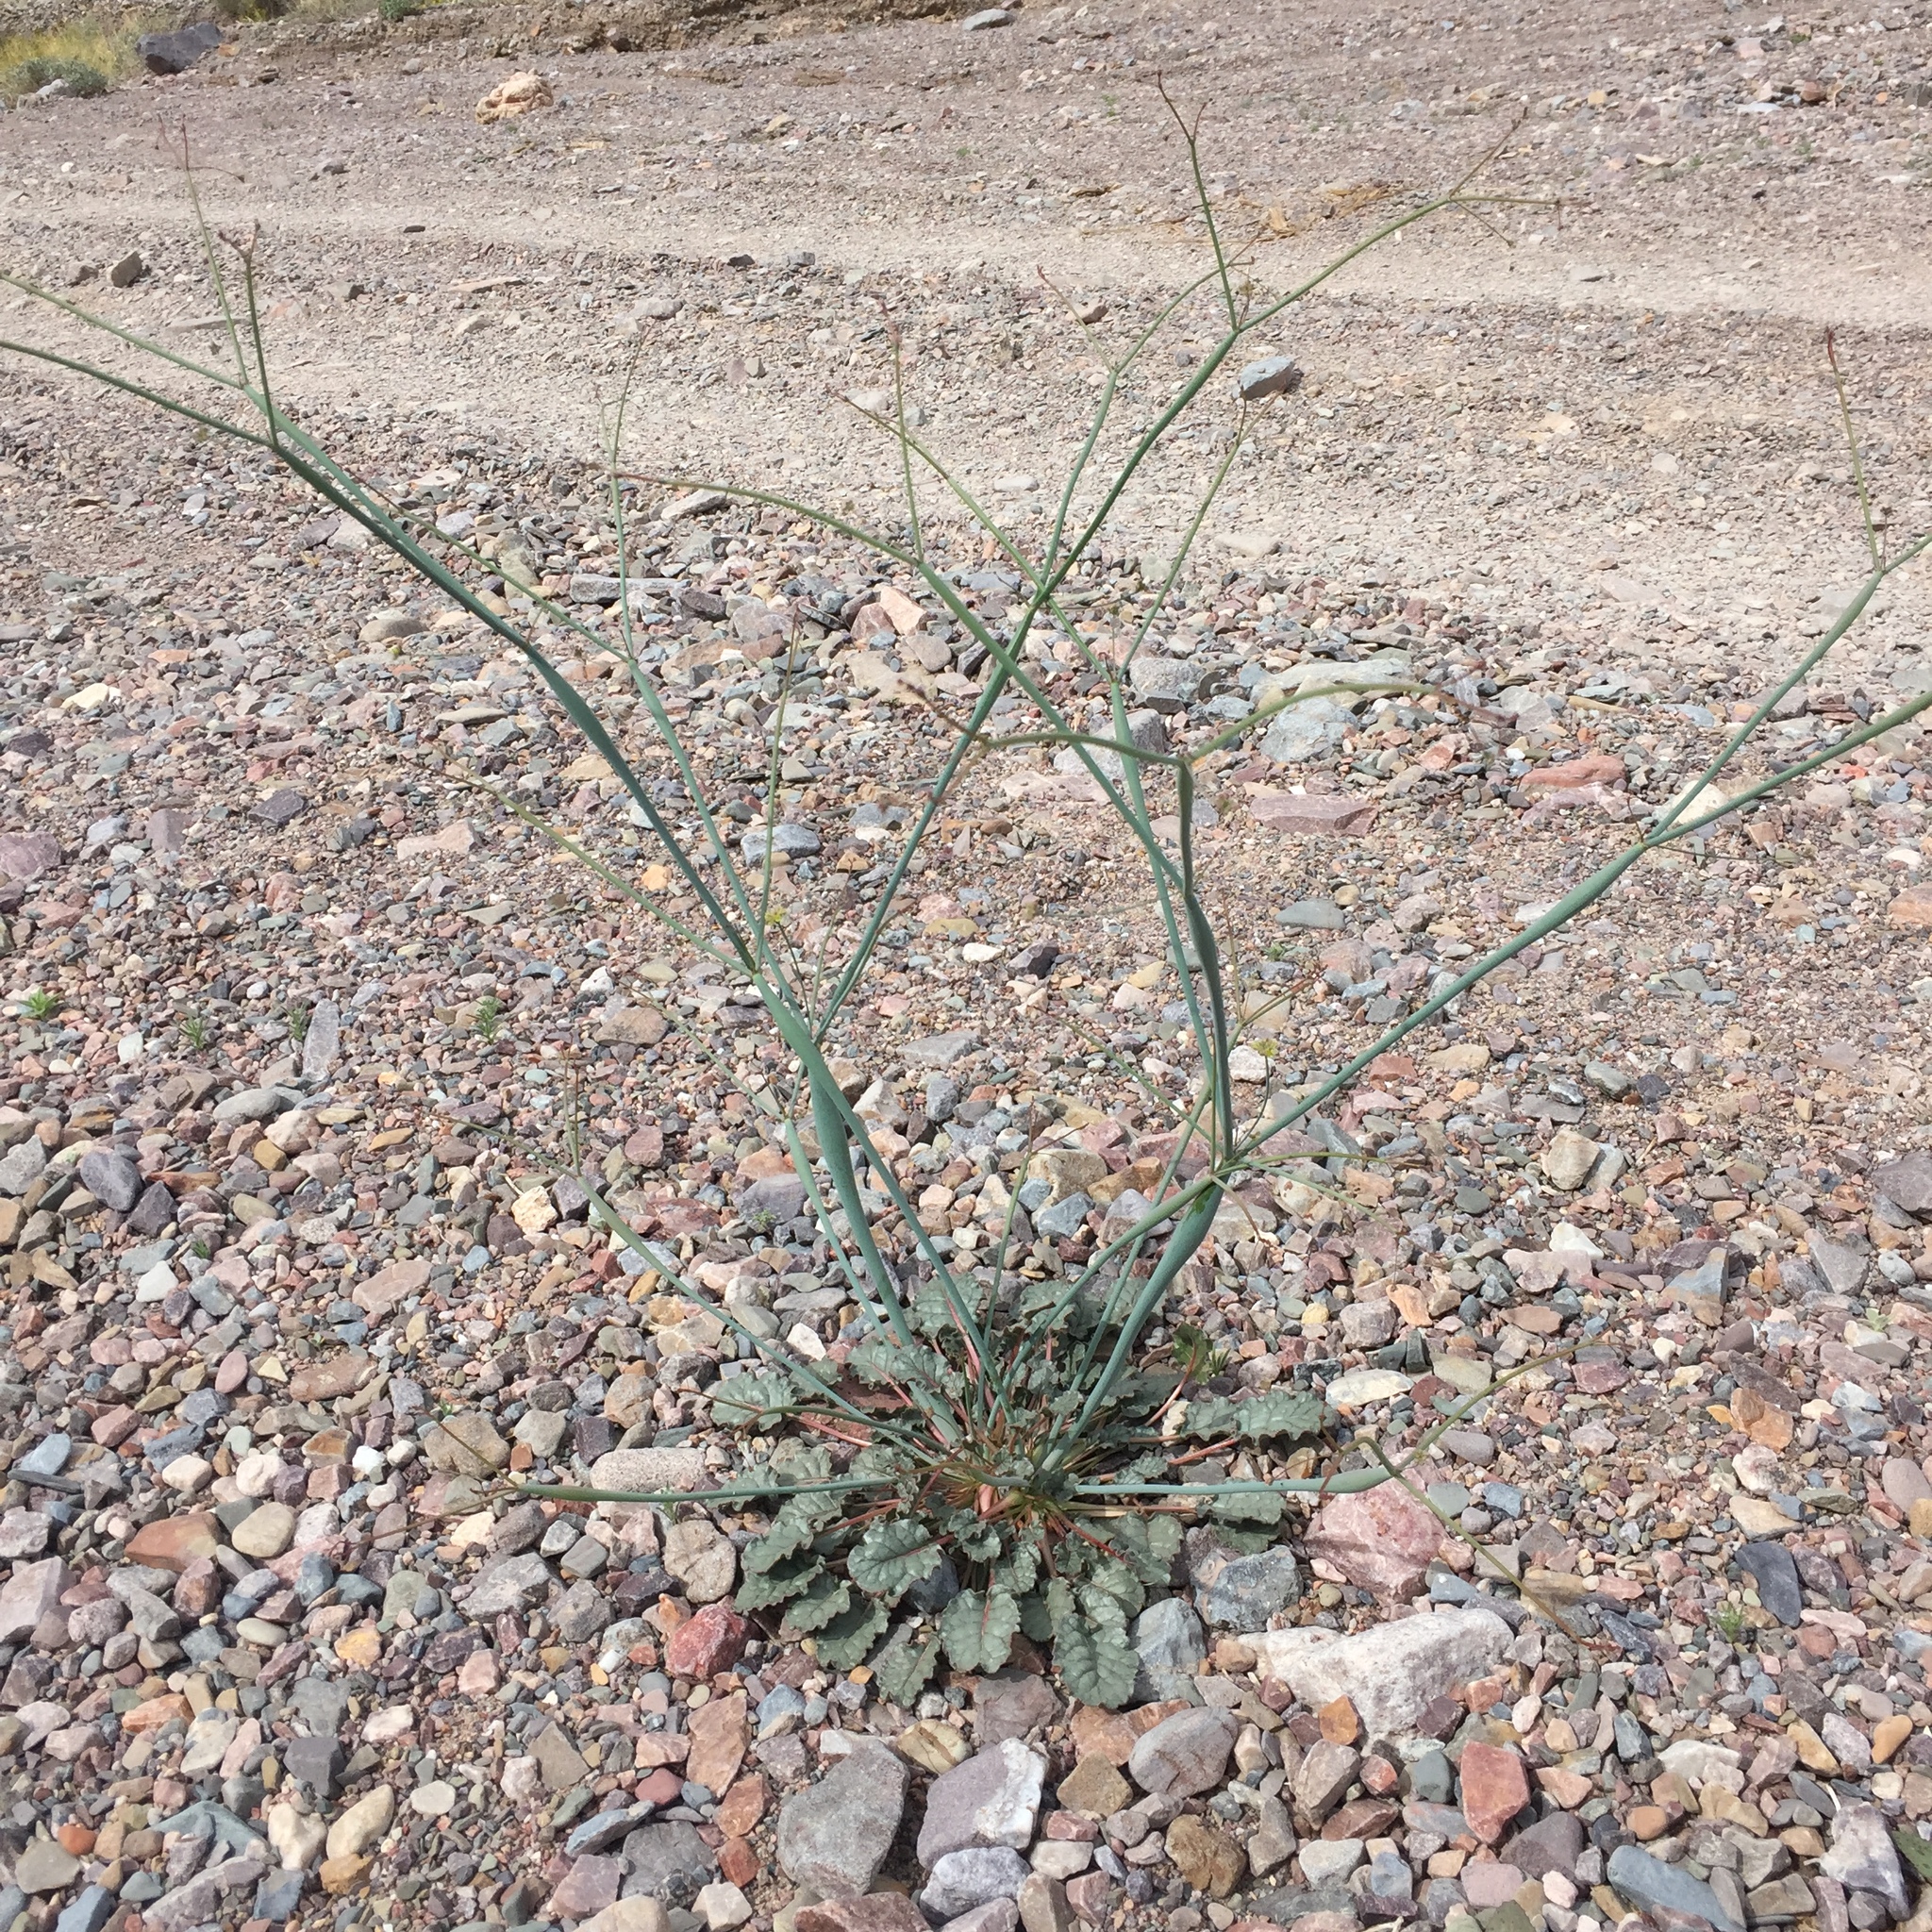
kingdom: Plantae
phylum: Tracheophyta
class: Magnoliopsida
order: Caryophyllales
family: Polygonaceae
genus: Eriogonum
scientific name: Eriogonum inflatum
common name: Desert trumpet
